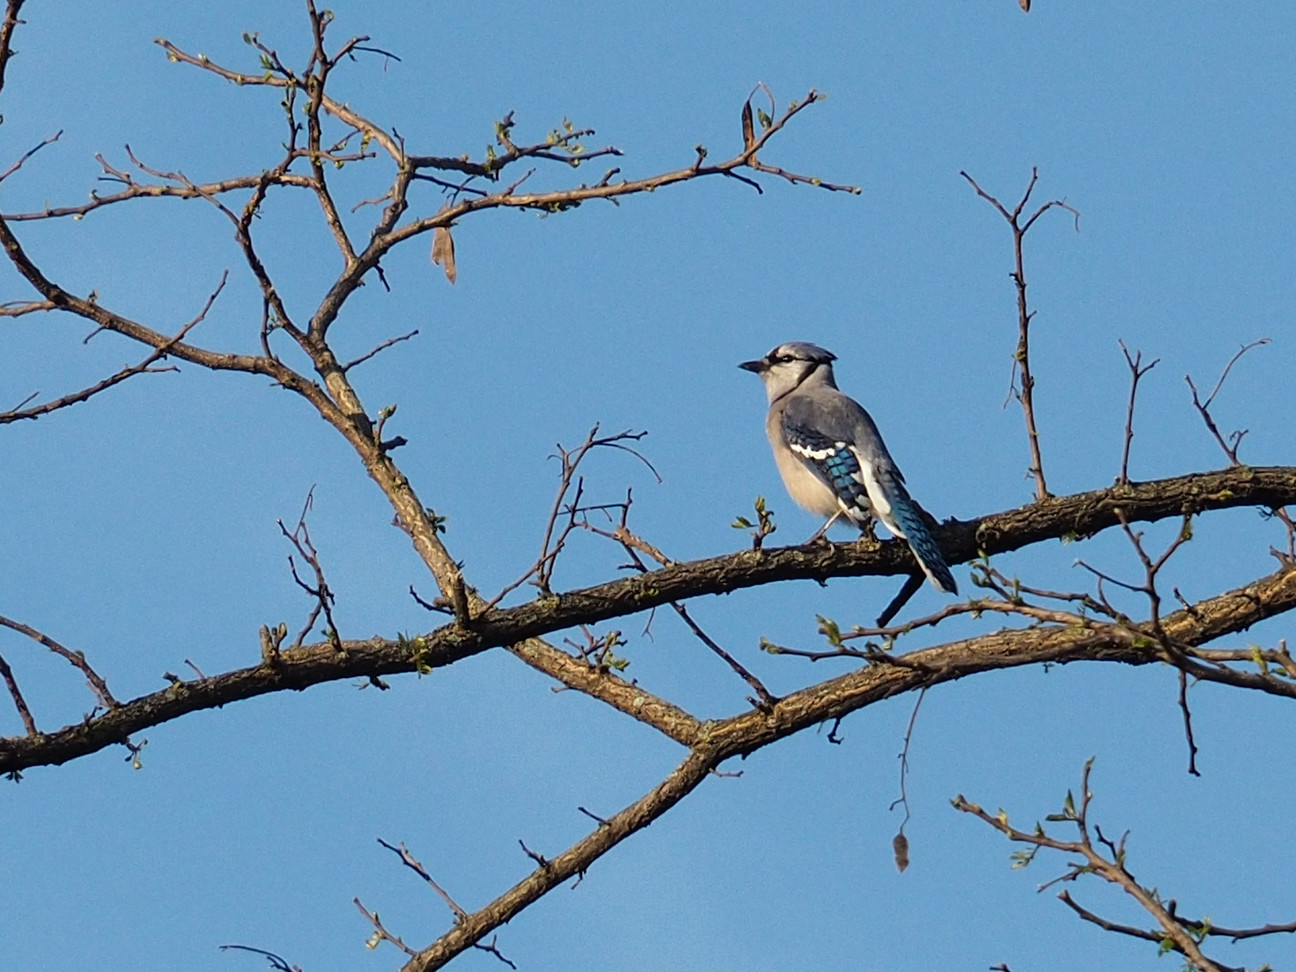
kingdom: Animalia
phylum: Chordata
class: Aves
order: Passeriformes
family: Corvidae
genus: Cyanocitta
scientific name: Cyanocitta cristata
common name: Blue jay
